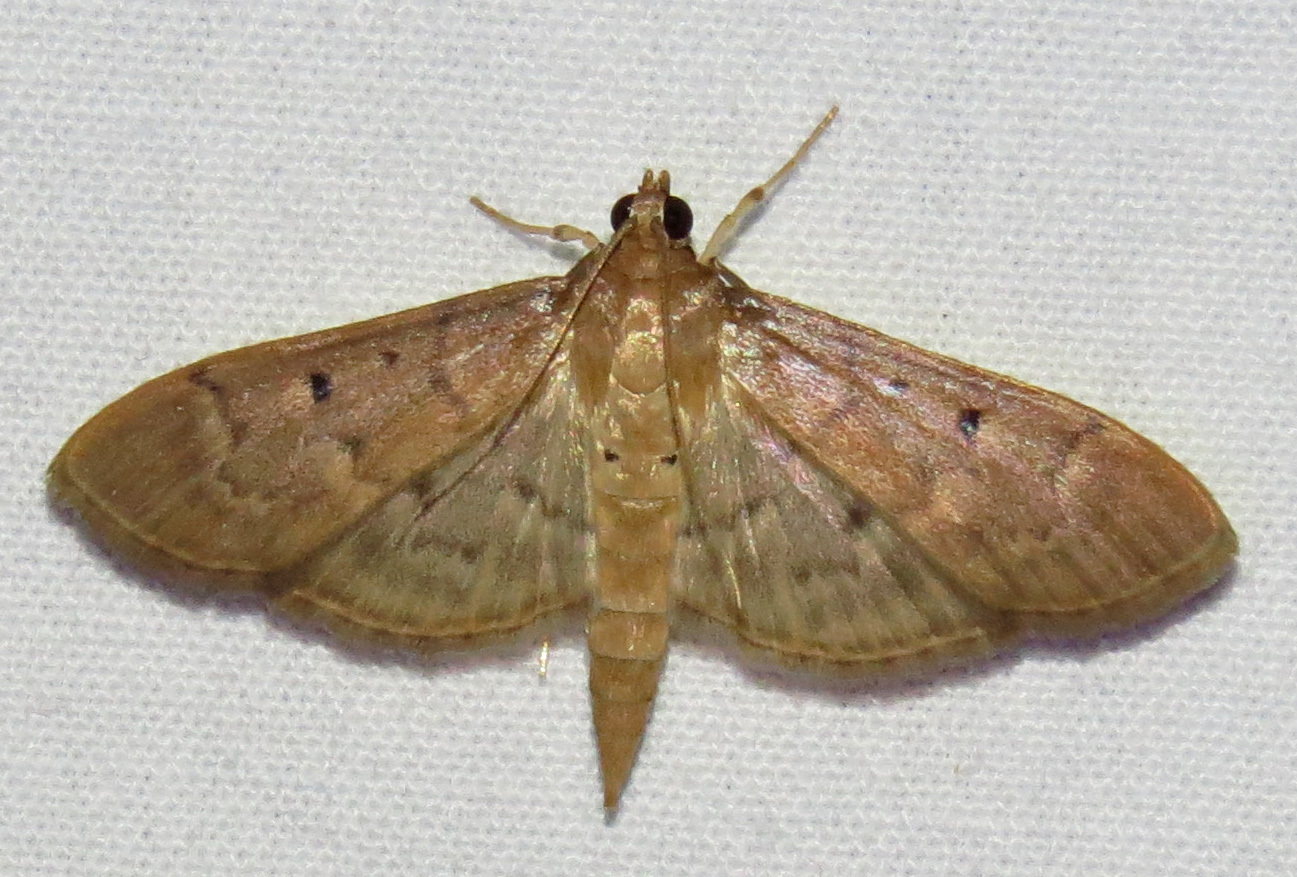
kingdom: Animalia
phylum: Arthropoda
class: Insecta
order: Lepidoptera
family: Crambidae
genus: Herpetogramma
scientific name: Herpetogramma bipunctalis
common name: Southern beet webworm
